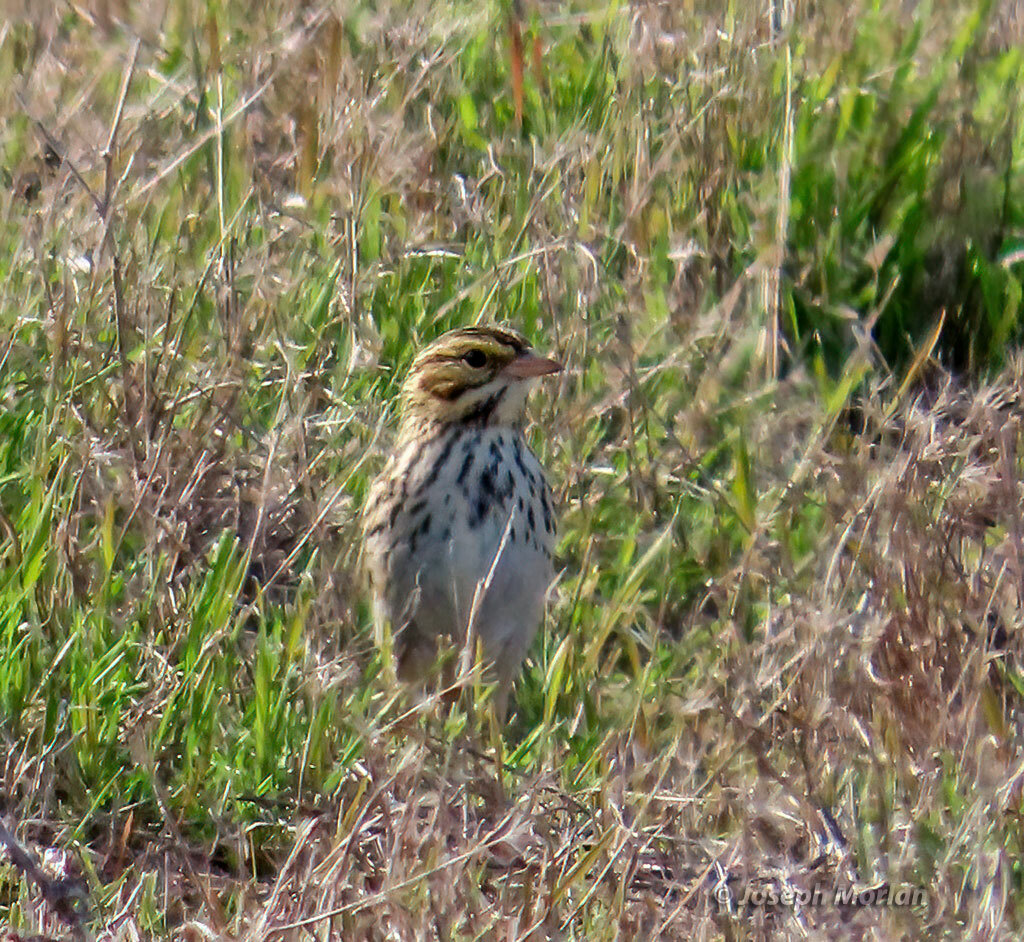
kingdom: Animalia
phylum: Chordata
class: Aves
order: Passeriformes
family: Passerellidae
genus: Passerculus
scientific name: Passerculus sandwichensis
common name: Savannah sparrow
